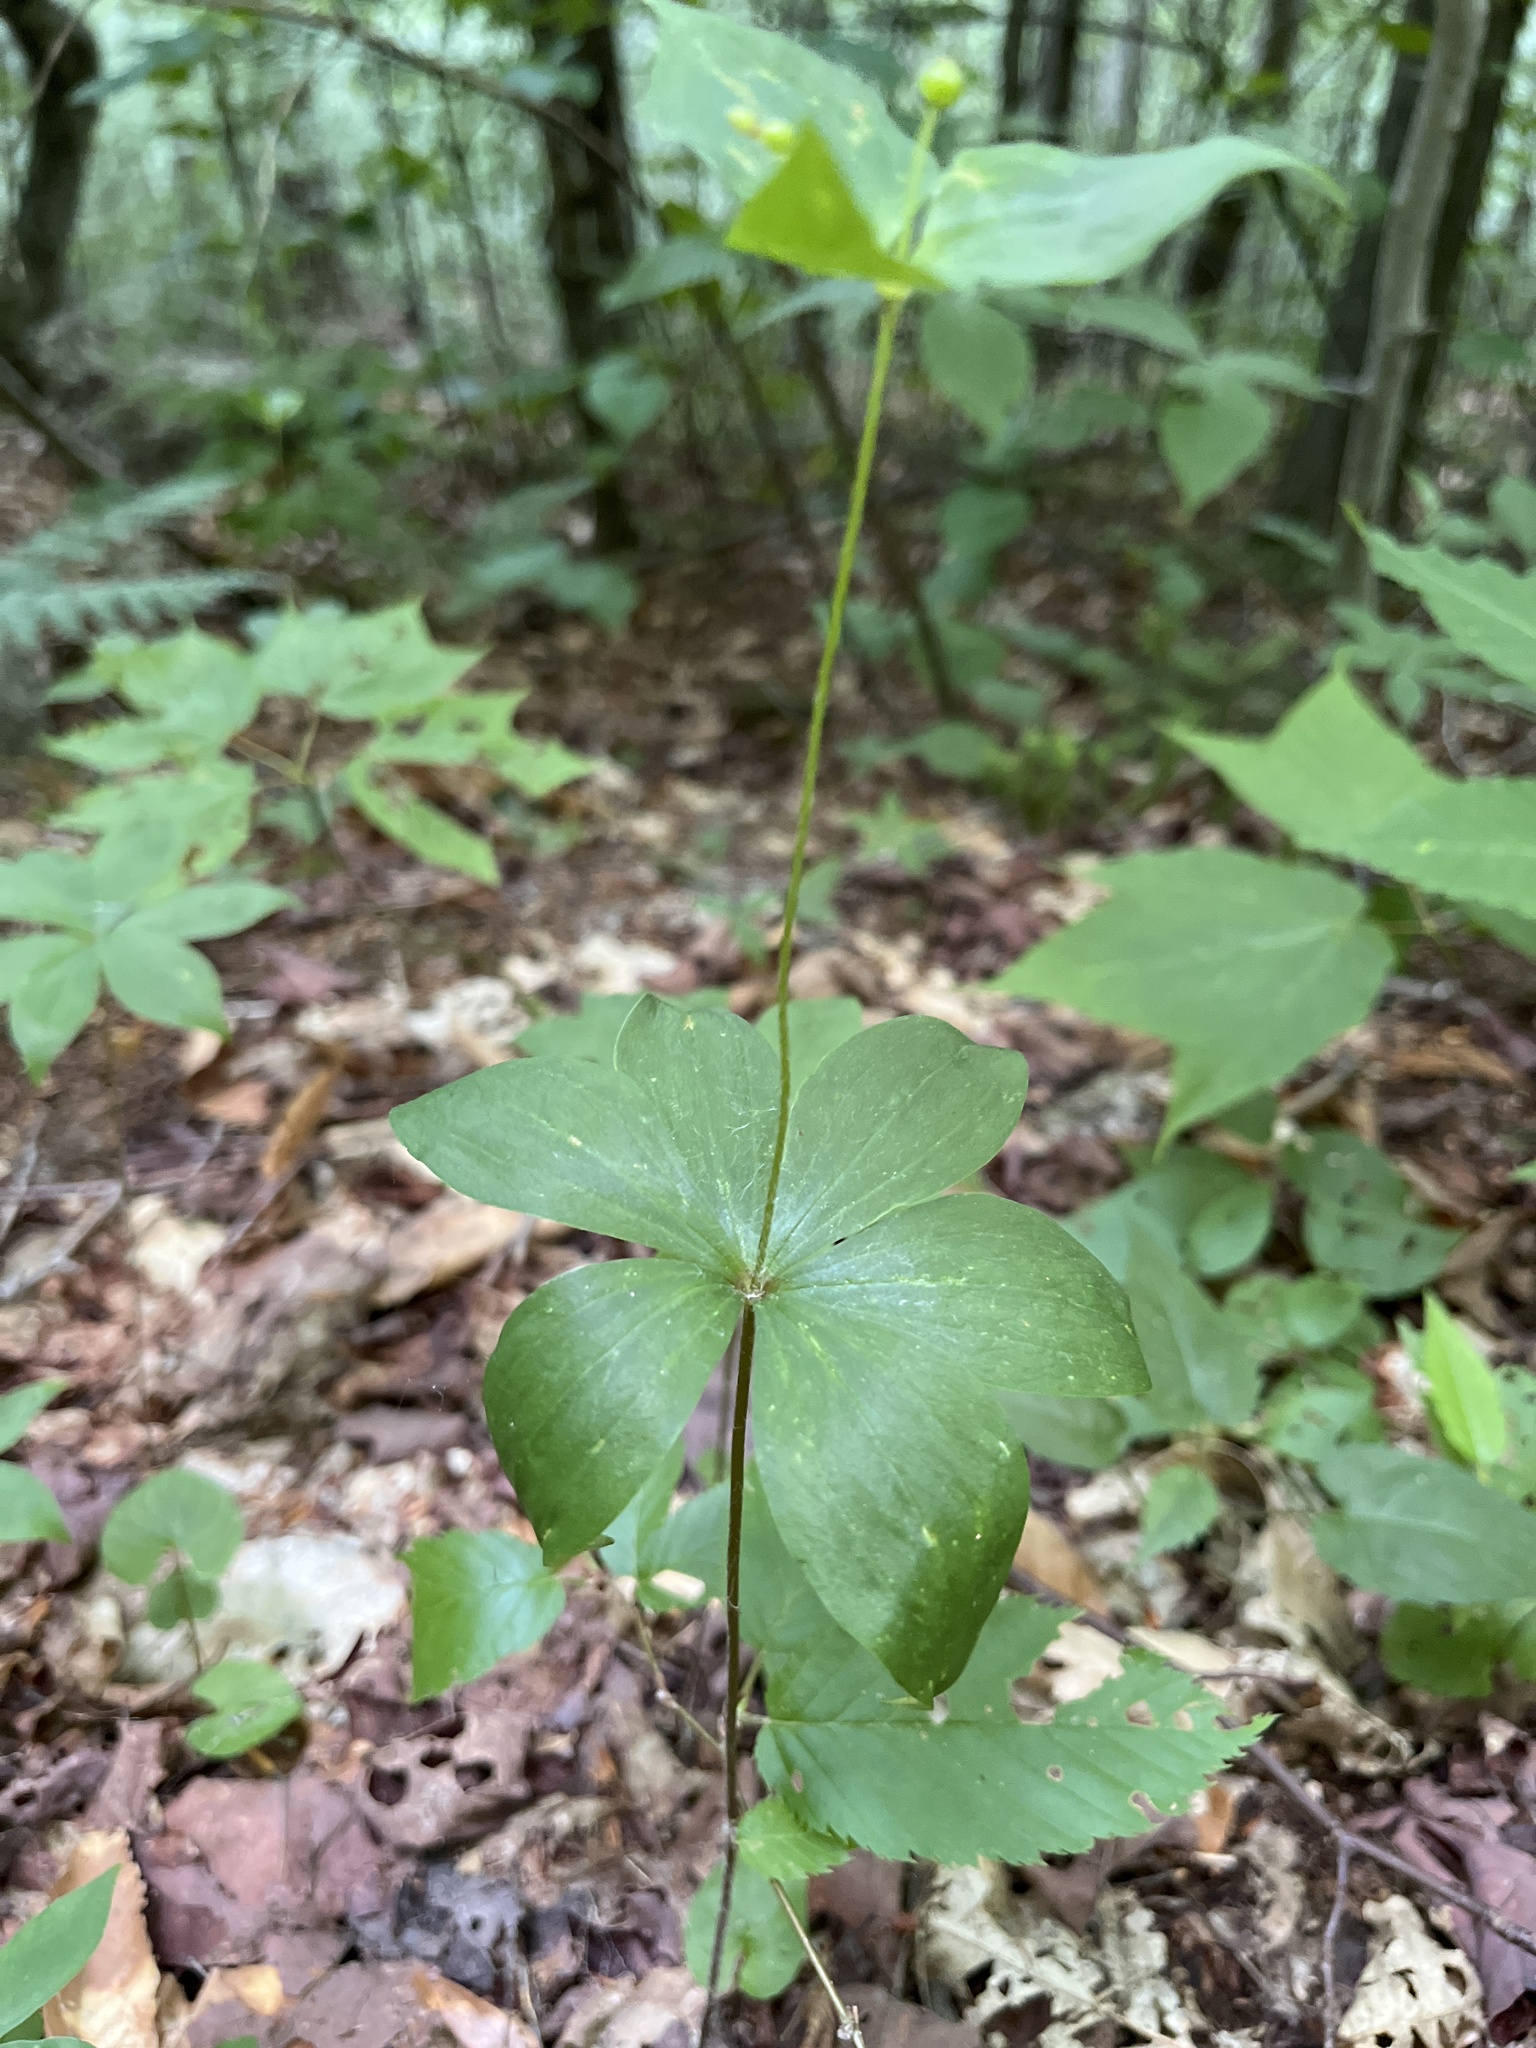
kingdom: Plantae
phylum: Tracheophyta
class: Liliopsida
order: Liliales
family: Liliaceae
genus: Medeola
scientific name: Medeola virginiana
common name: Indian cucumber-root
